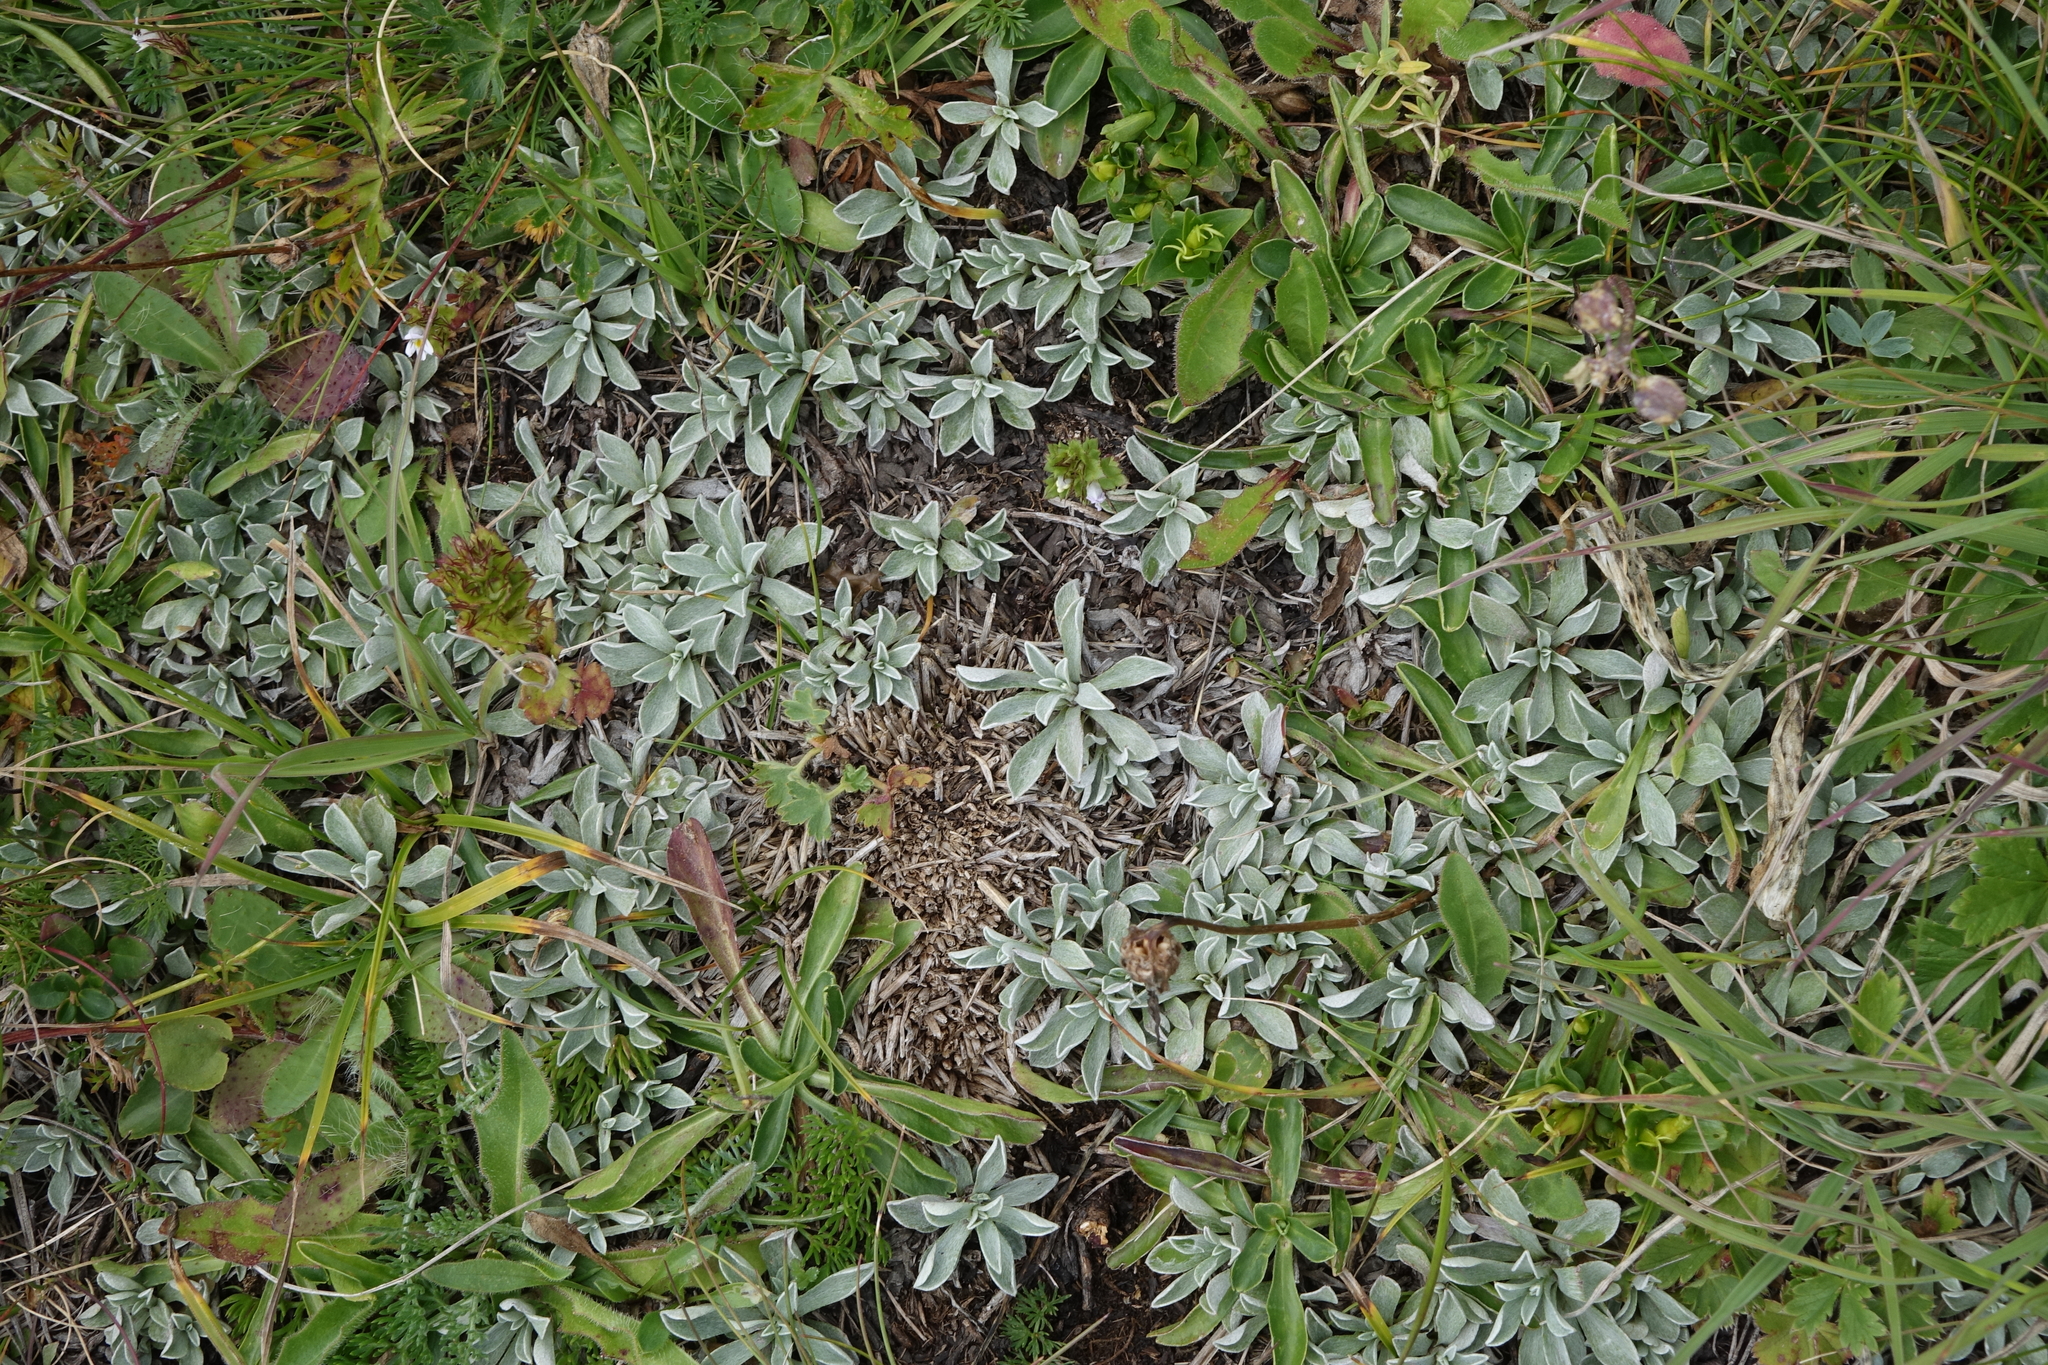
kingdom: Plantae
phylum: Tracheophyta
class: Magnoliopsida
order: Asterales
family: Asteraceae
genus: Antennaria
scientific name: Antennaria caucasica
